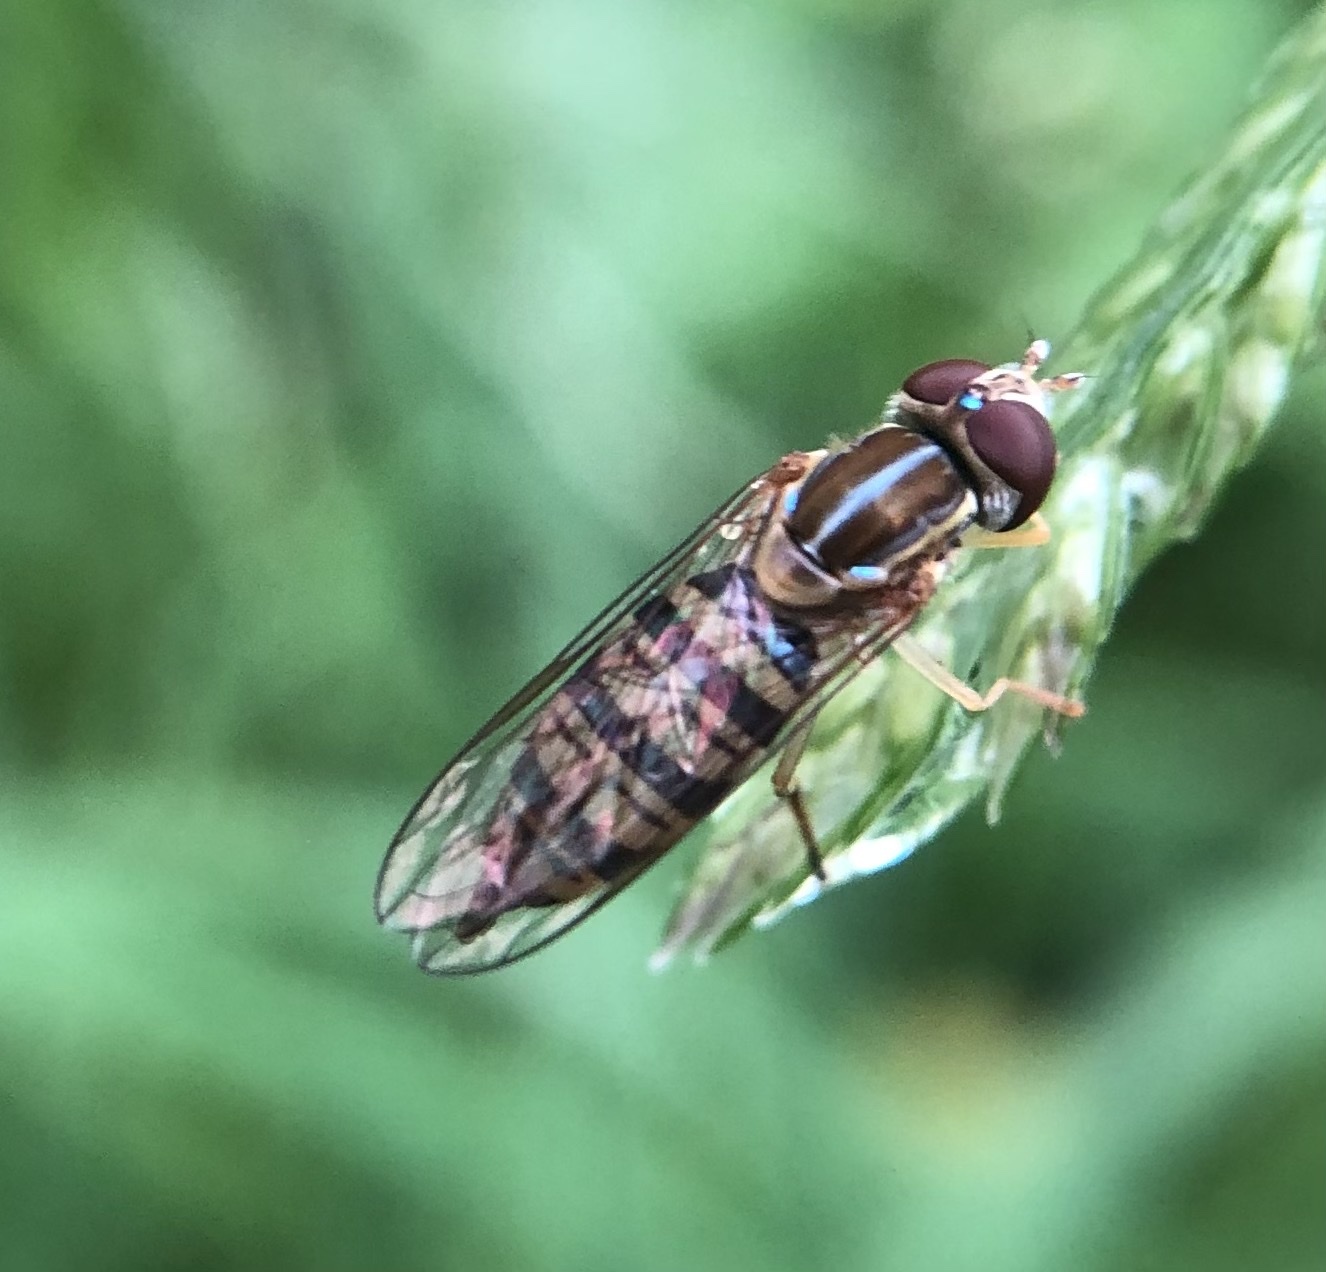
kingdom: Animalia
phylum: Arthropoda
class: Insecta
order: Diptera
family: Syrphidae
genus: Toxomerus
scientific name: Toxomerus politus
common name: Maize calligrapher
